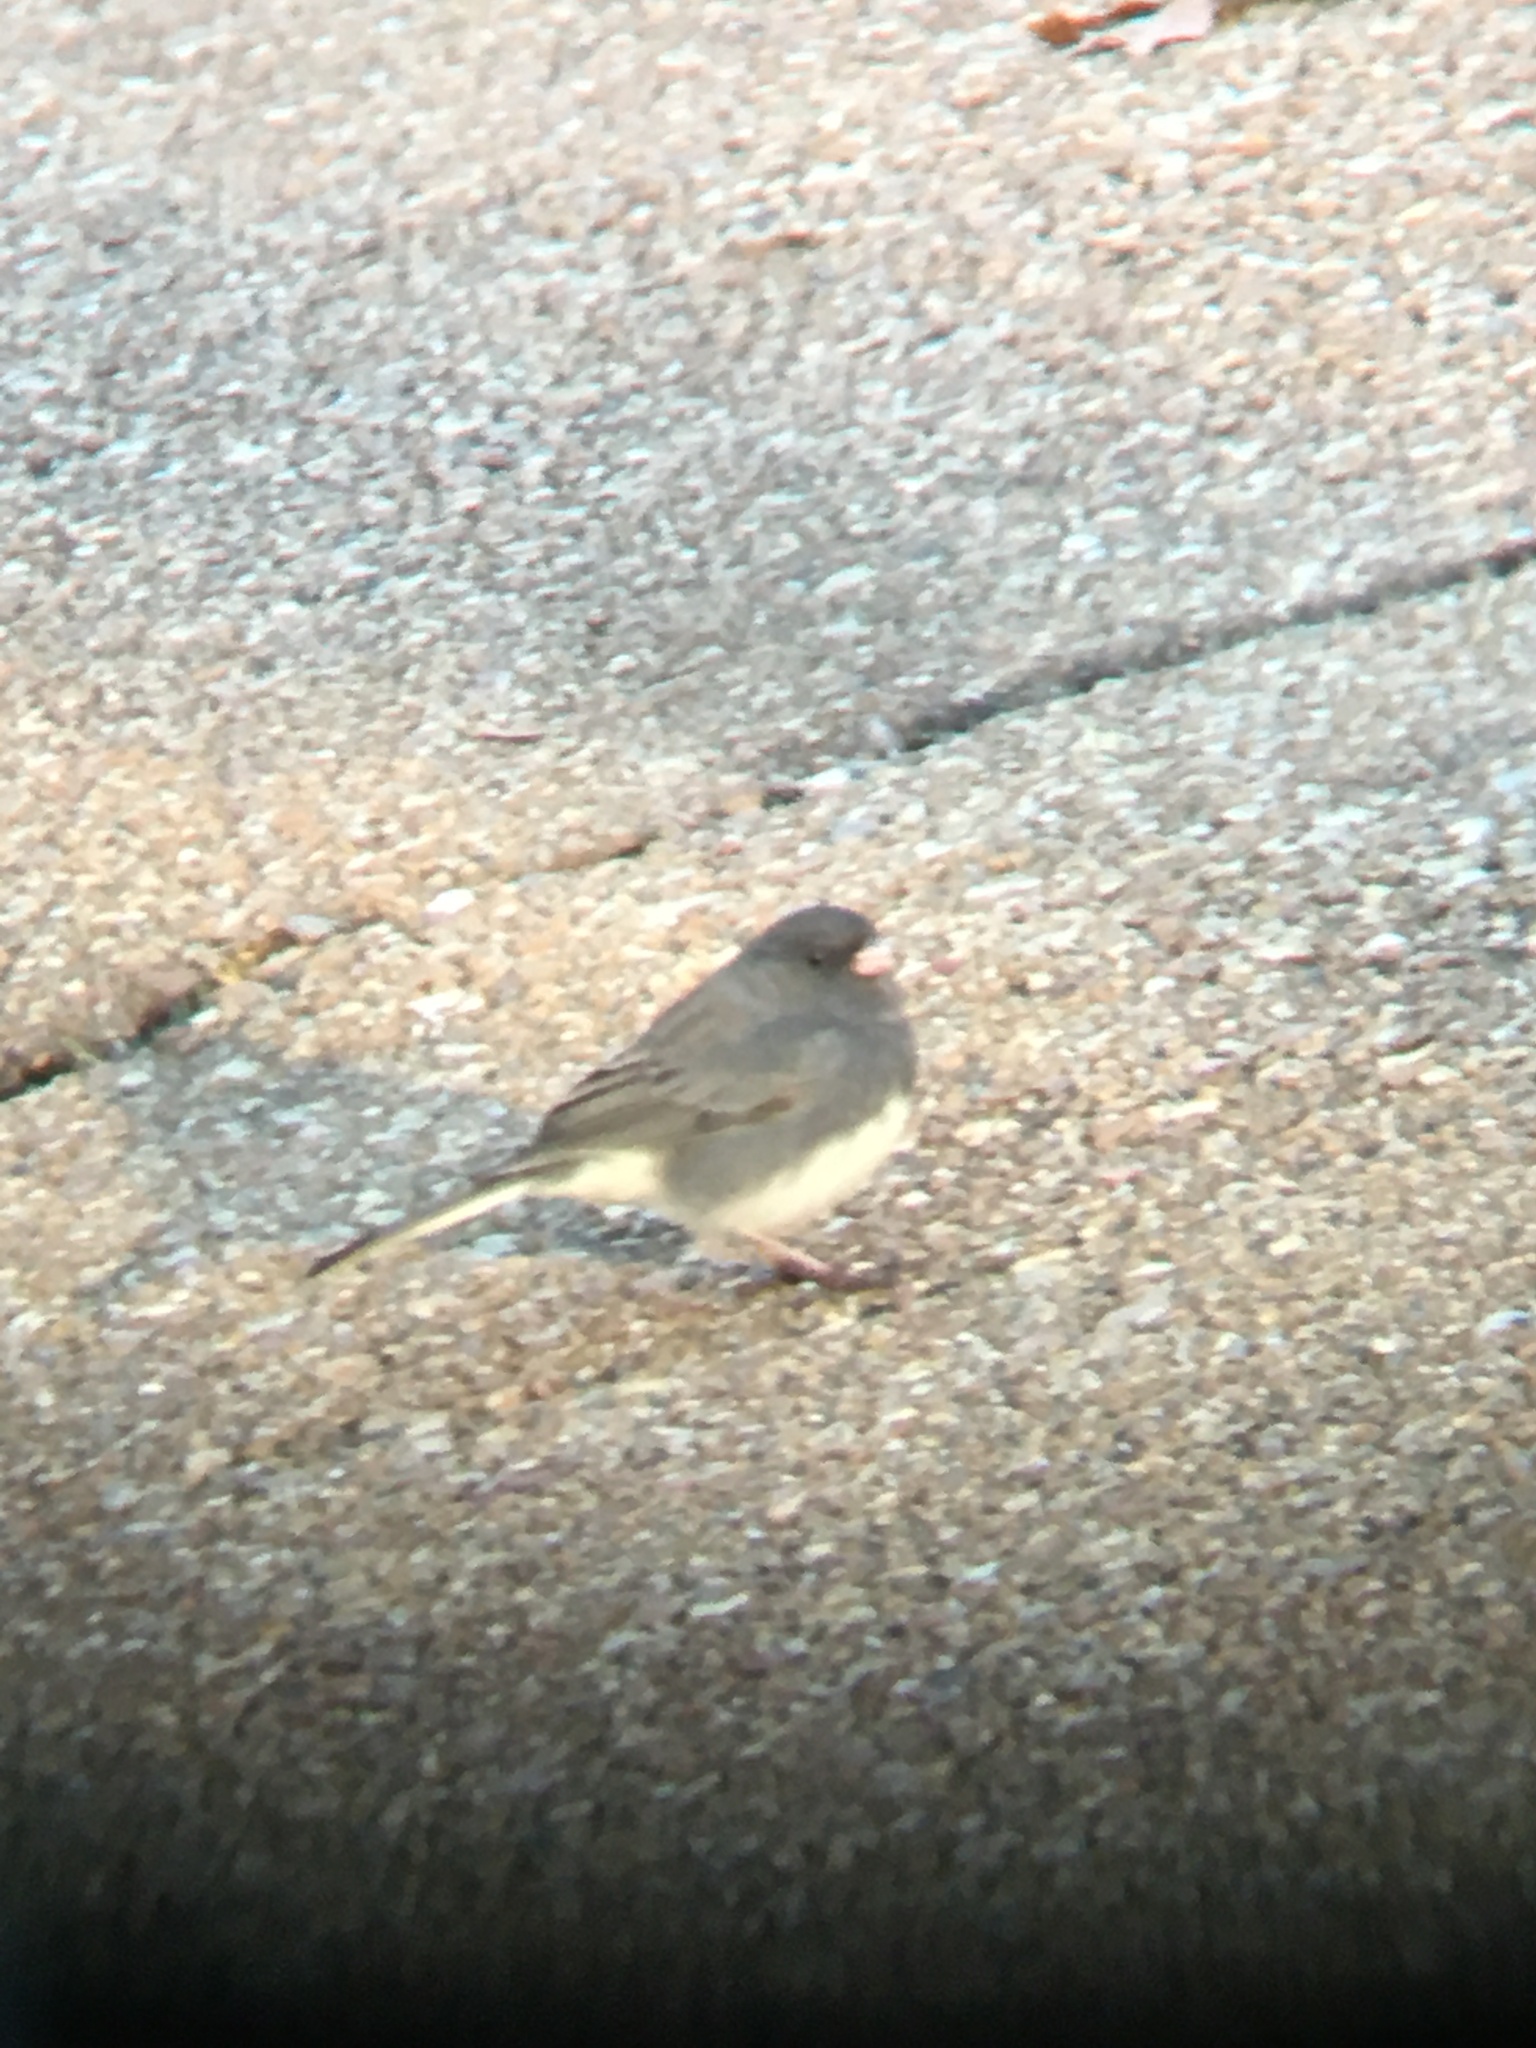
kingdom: Animalia
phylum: Chordata
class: Aves
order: Passeriformes
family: Passerellidae
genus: Junco
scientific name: Junco hyemalis
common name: Dark-eyed junco
